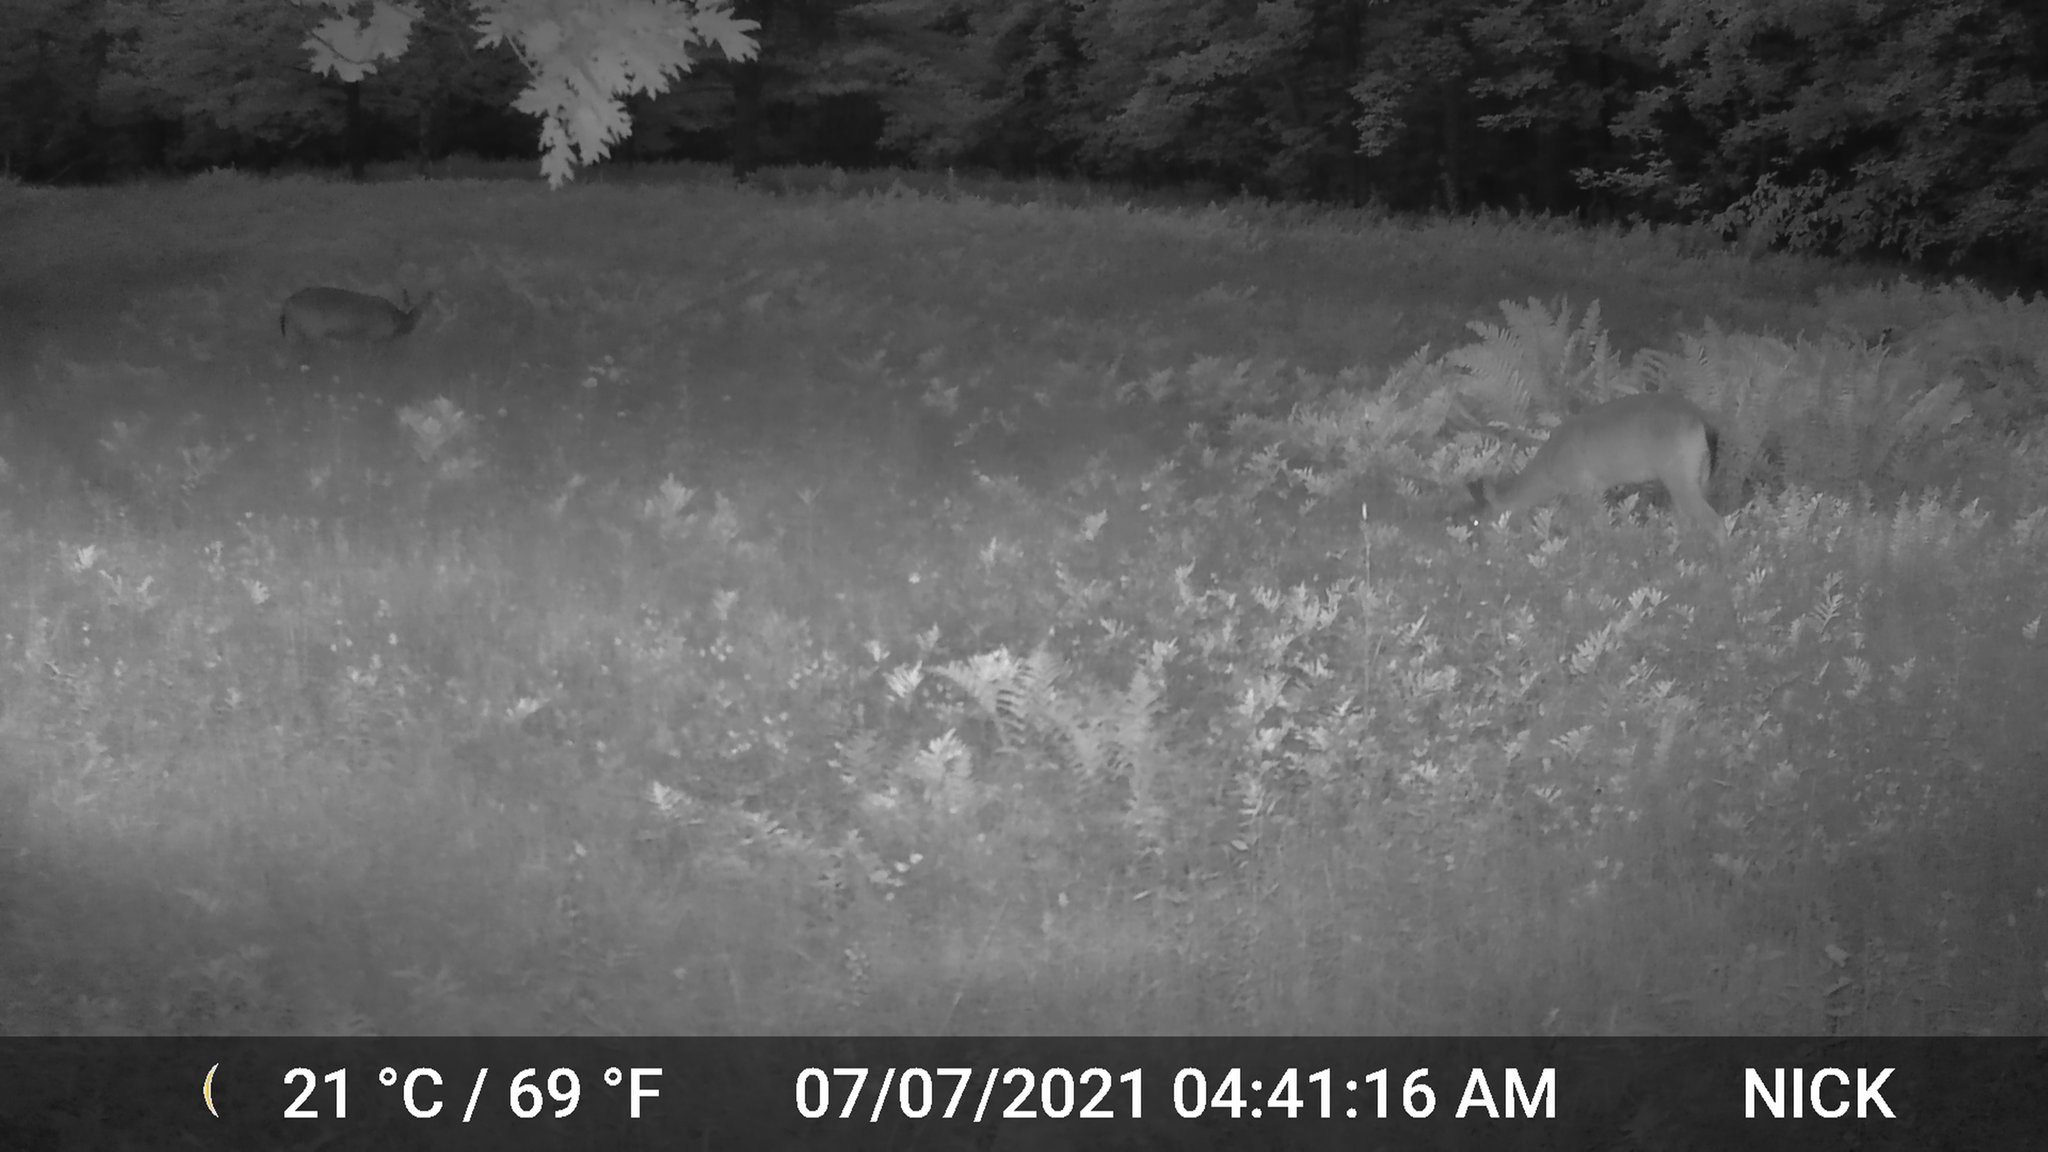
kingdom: Animalia
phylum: Chordata
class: Mammalia
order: Artiodactyla
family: Cervidae
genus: Odocoileus
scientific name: Odocoileus virginianus
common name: White-tailed deer
